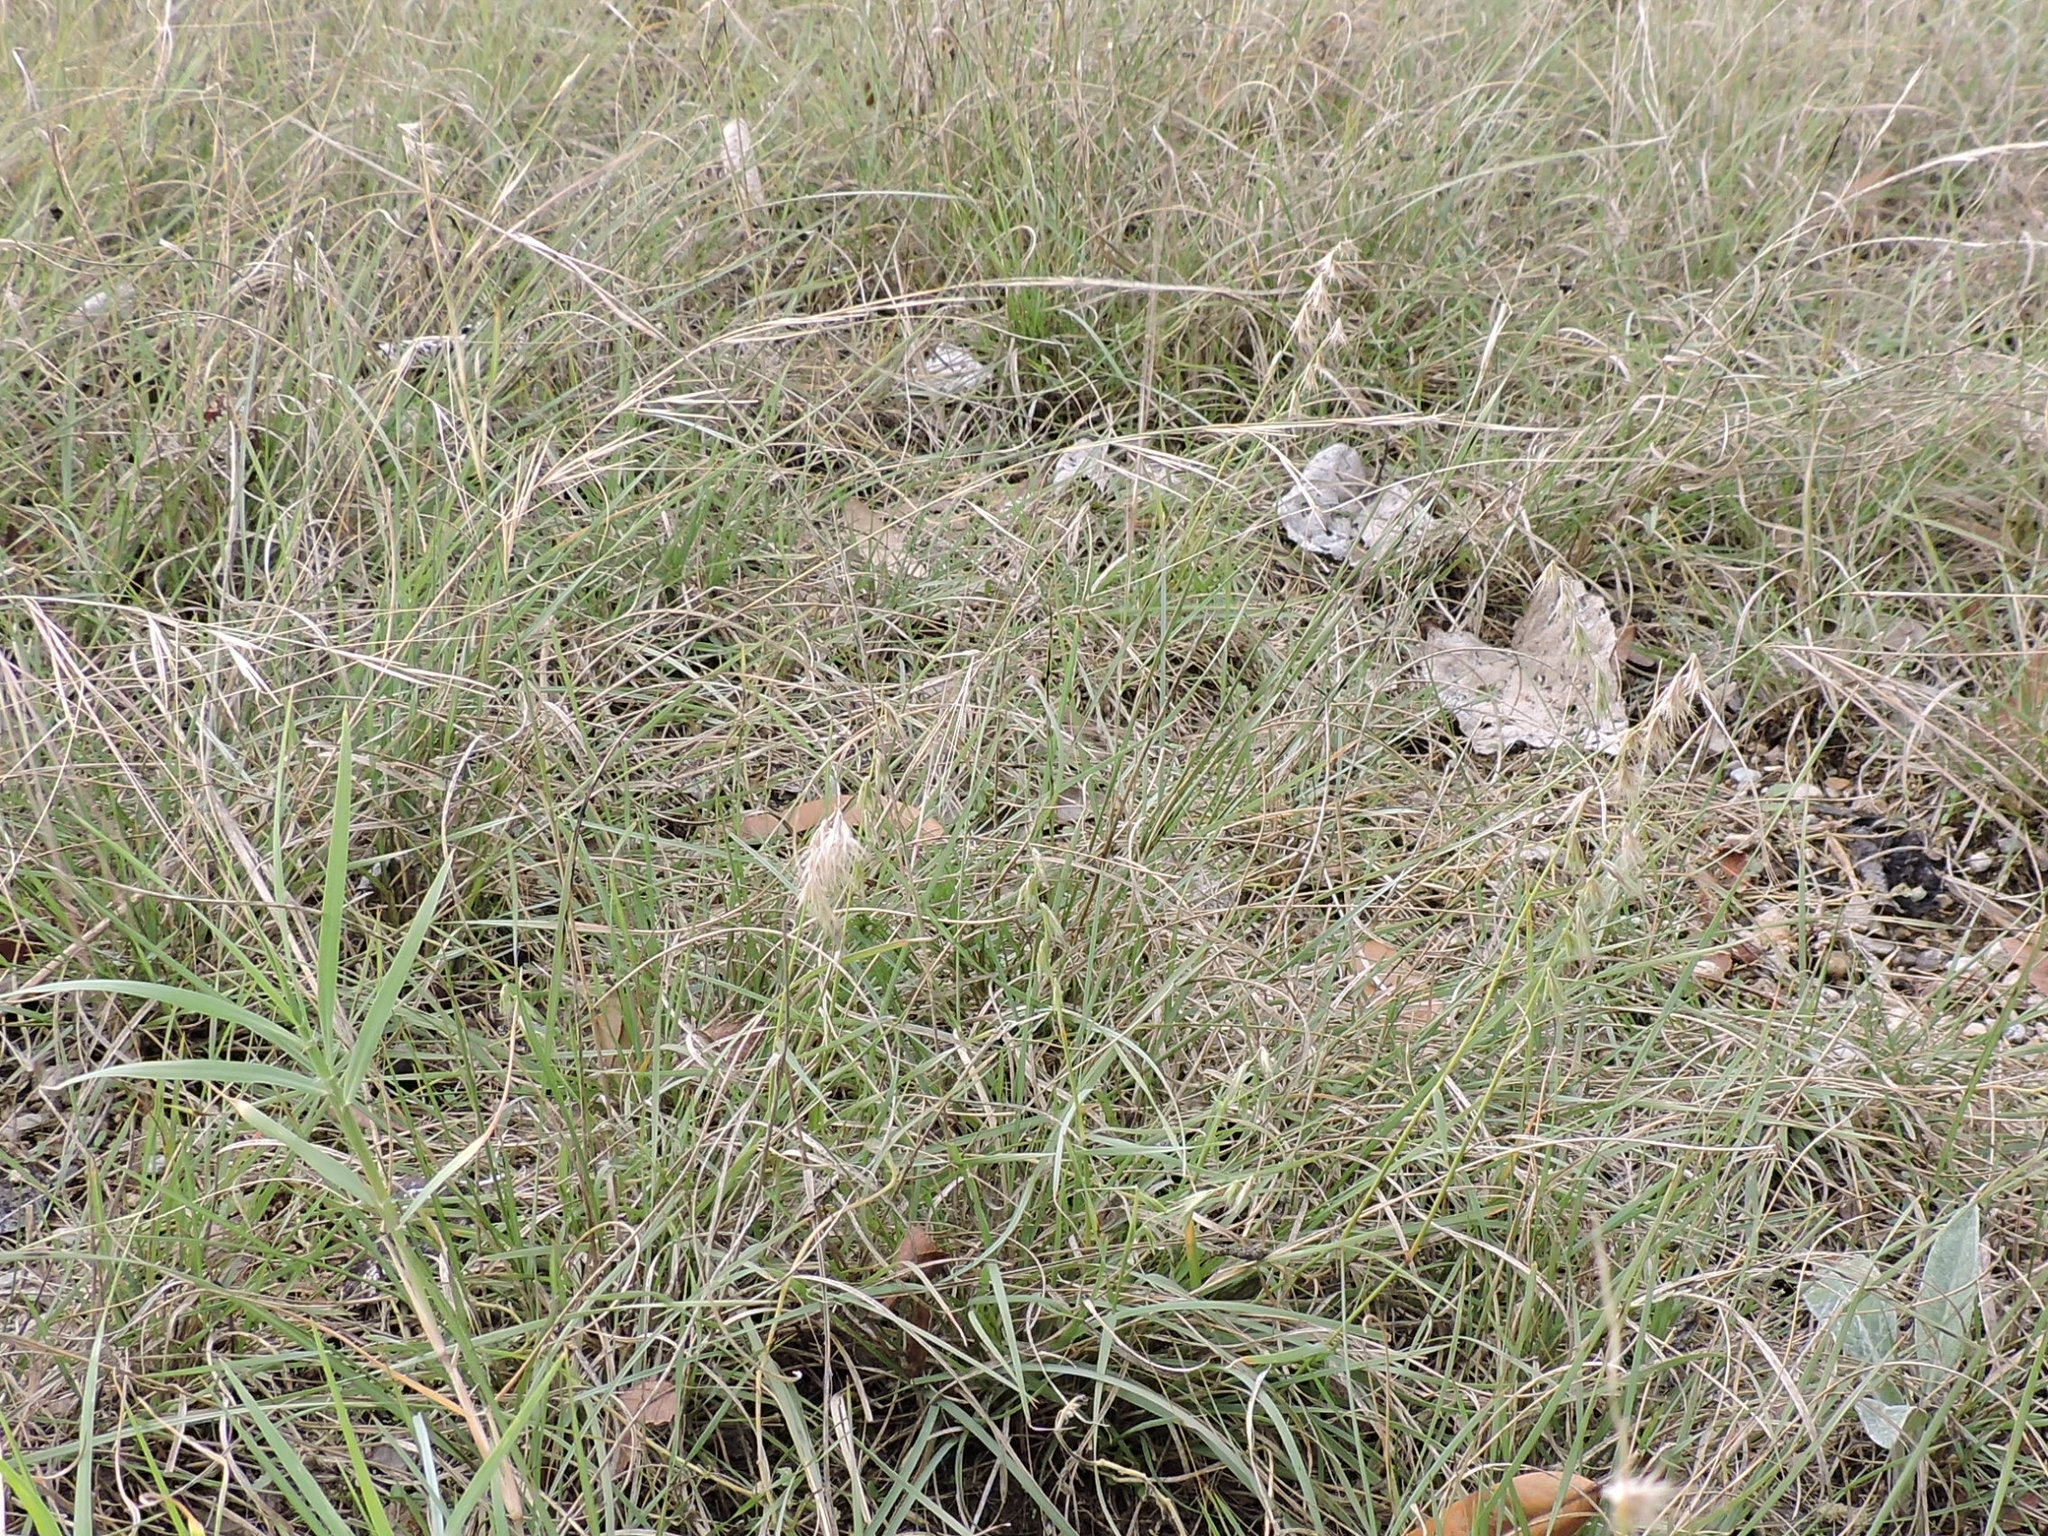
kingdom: Plantae
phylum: Tracheophyta
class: Liliopsida
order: Poales
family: Poaceae
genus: Bouteloua
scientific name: Bouteloua rigidiseta
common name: Texas grama
